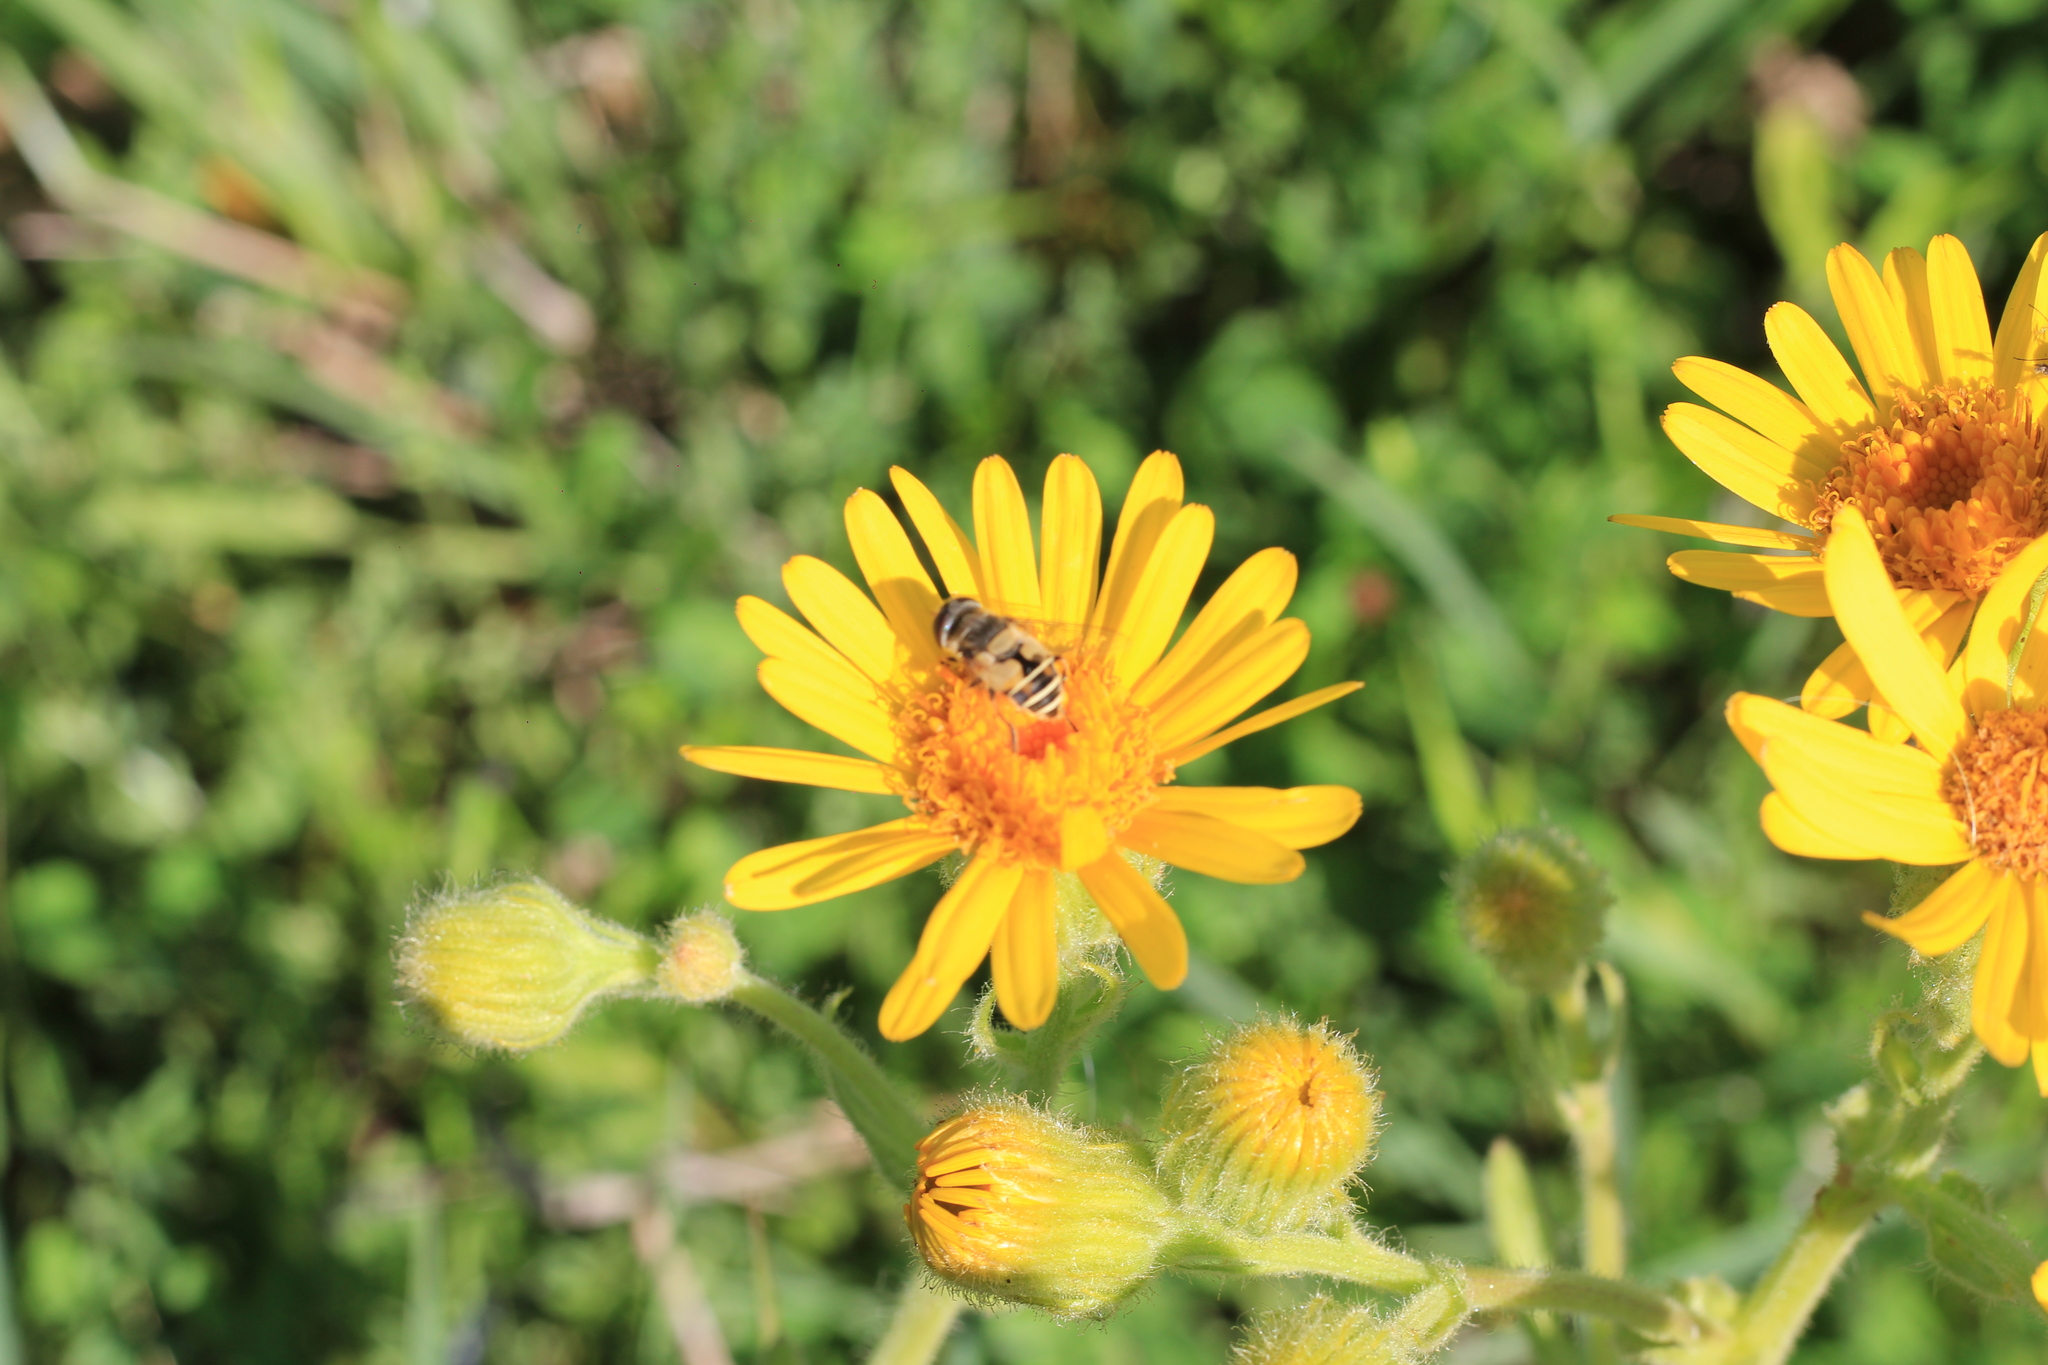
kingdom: Animalia
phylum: Arthropoda
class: Insecta
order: Diptera
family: Syrphidae
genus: Palpada
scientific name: Palpada
